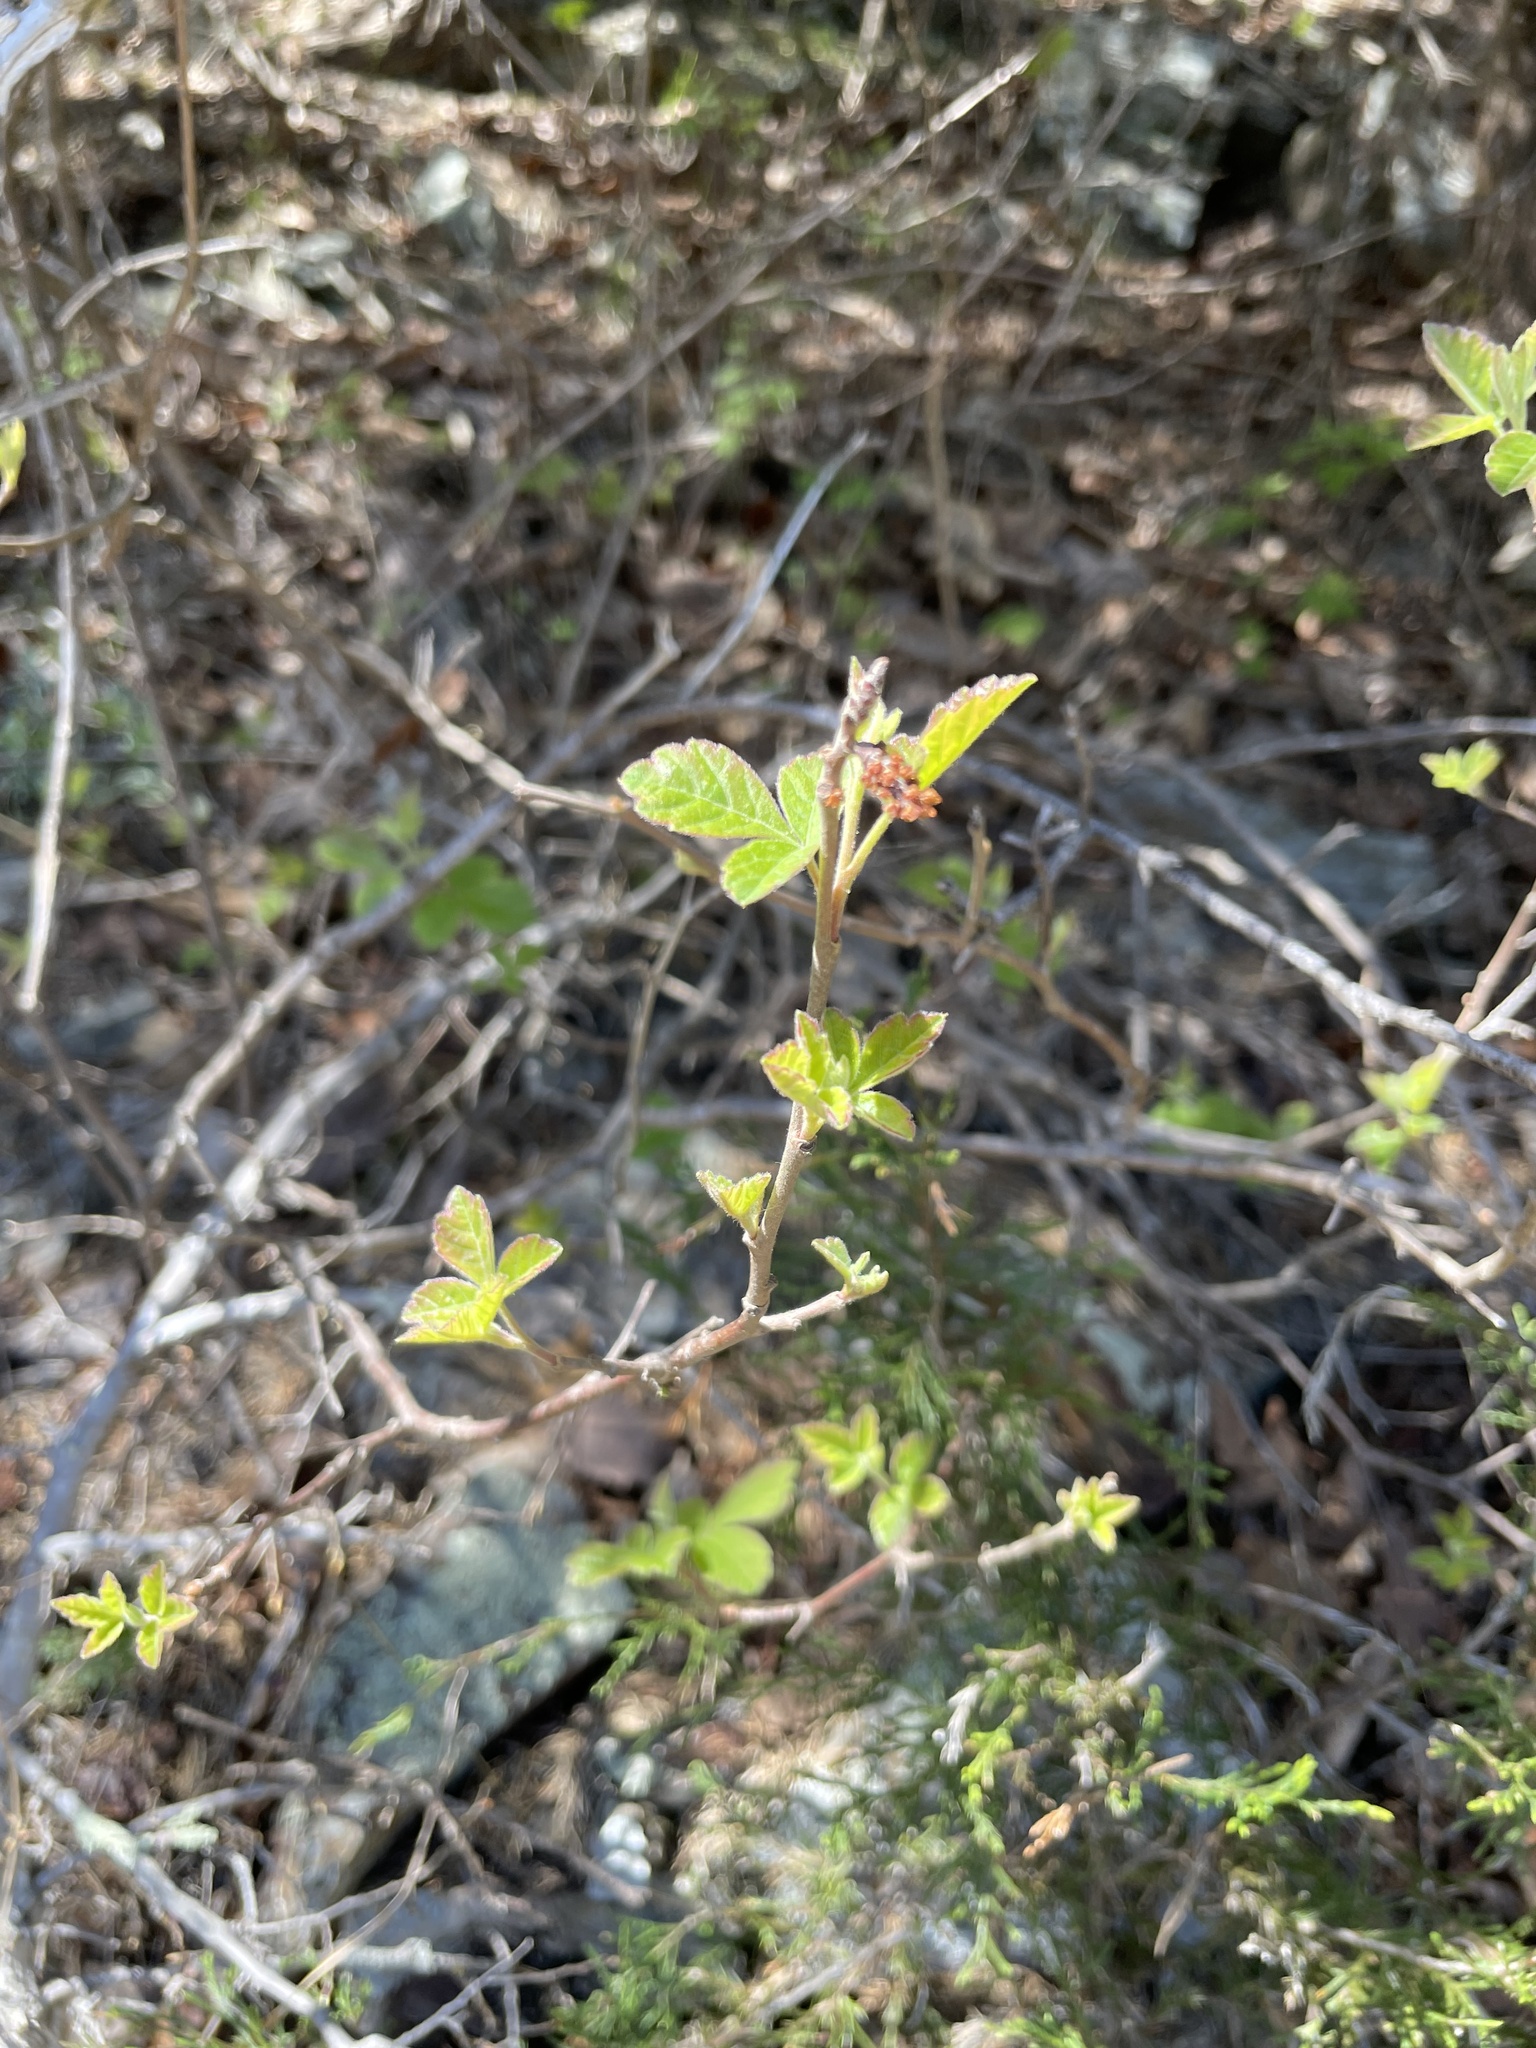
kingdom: Plantae
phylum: Tracheophyta
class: Magnoliopsida
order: Sapindales
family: Anacardiaceae
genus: Rhus
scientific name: Rhus aromatica
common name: Aromatic sumac
